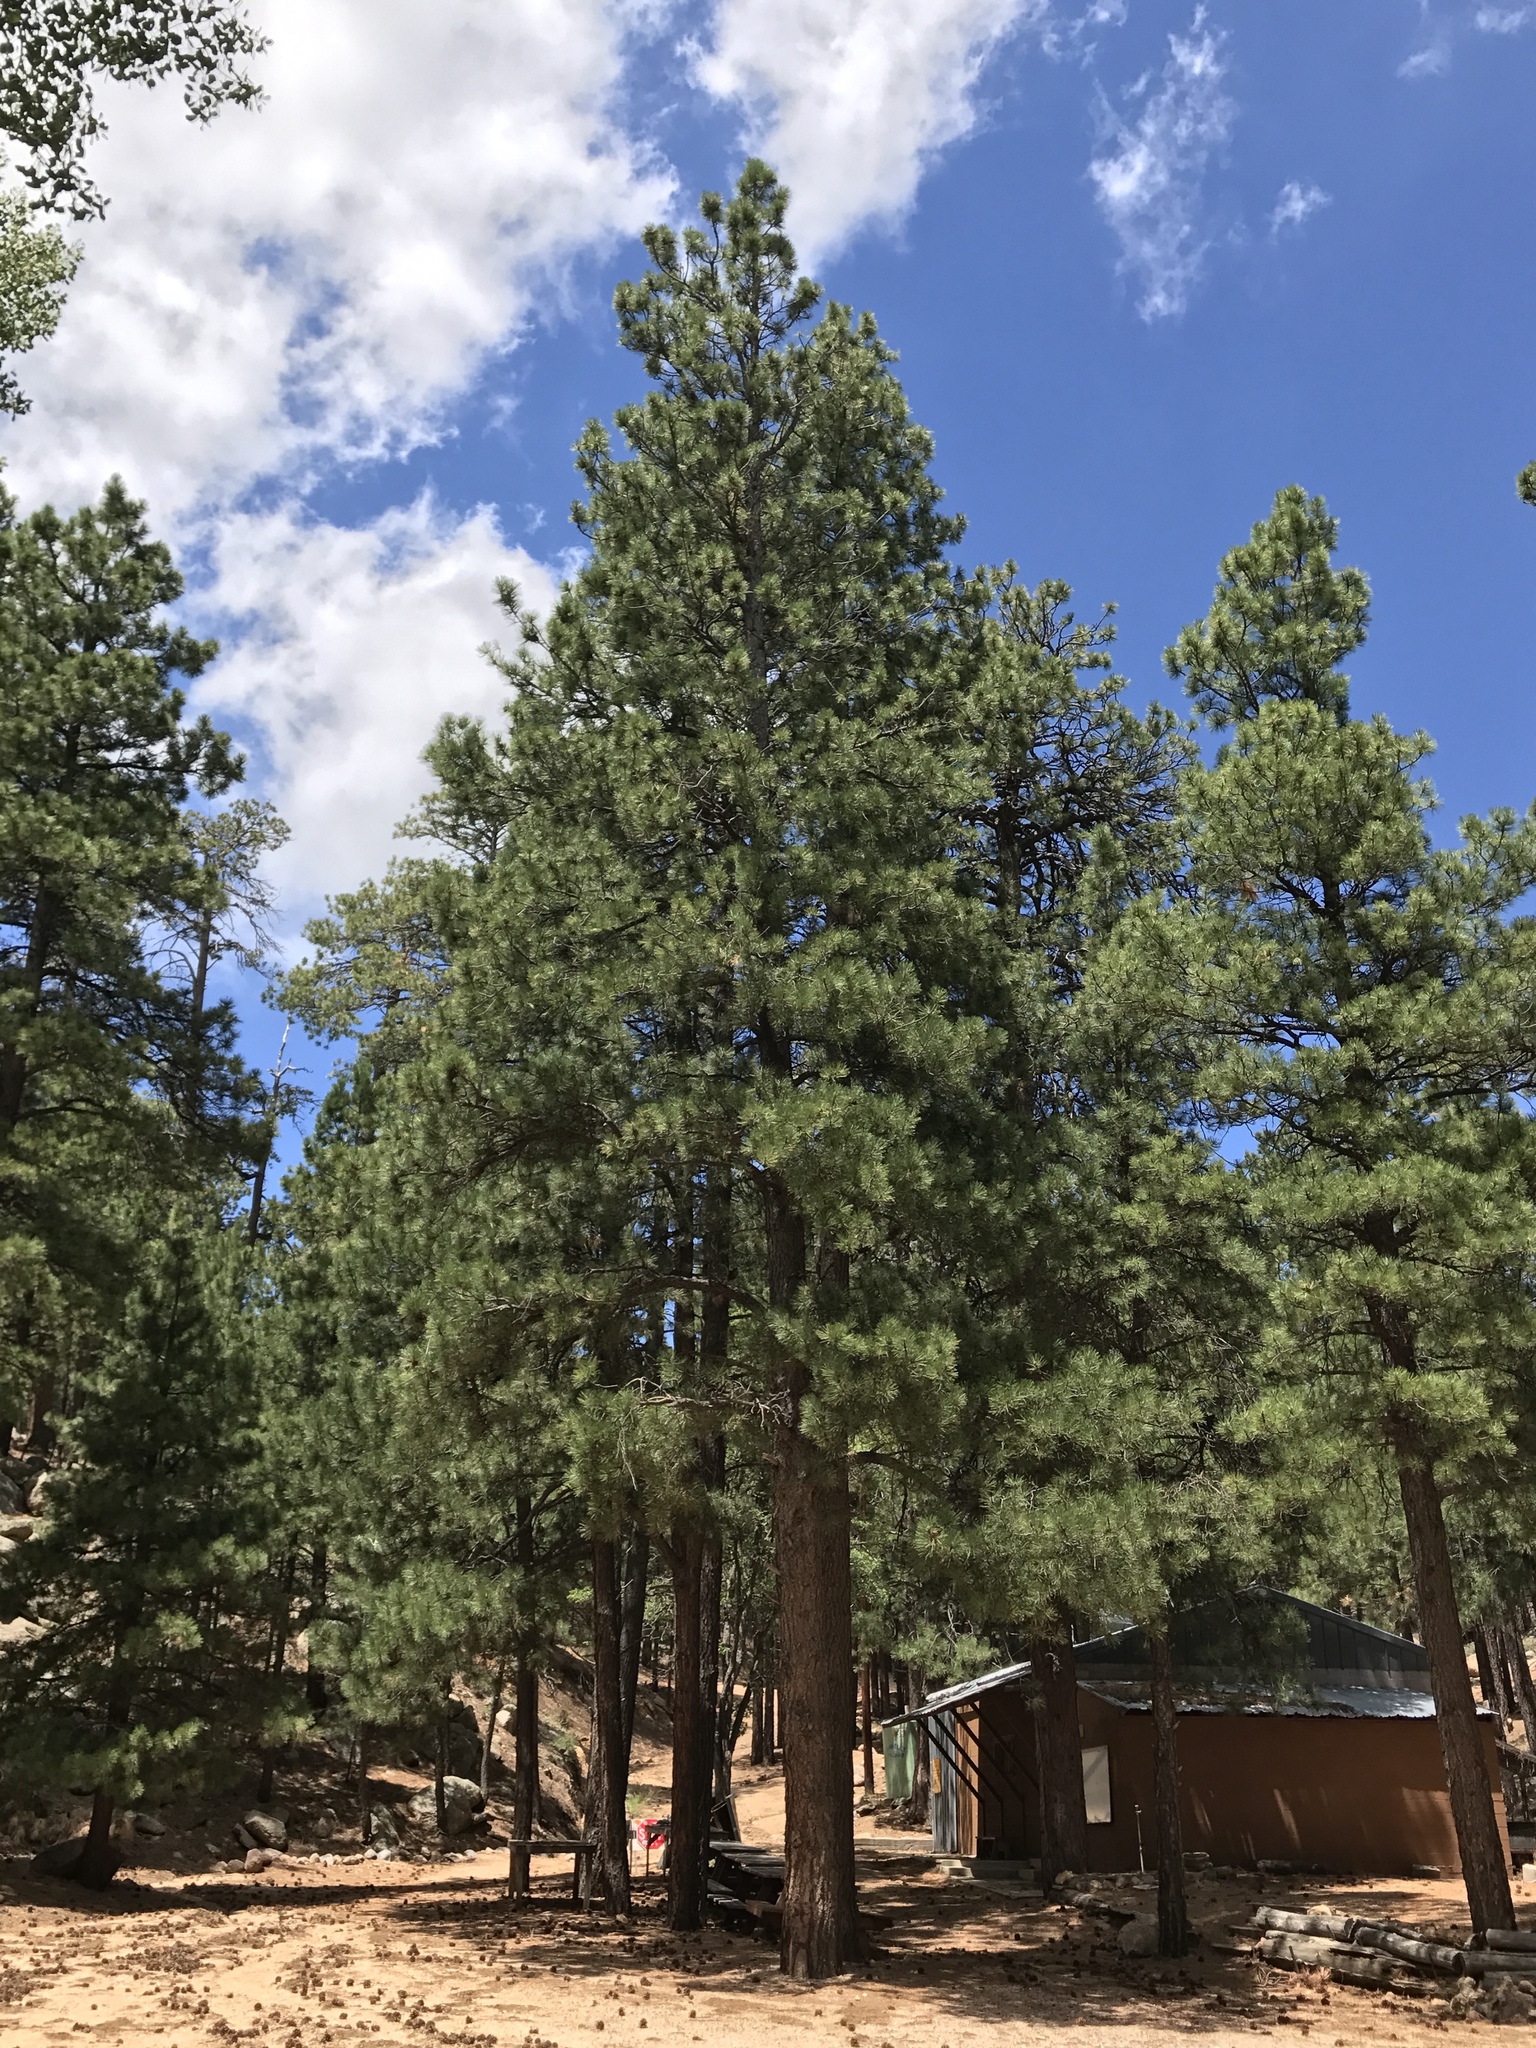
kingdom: Plantae
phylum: Tracheophyta
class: Pinopsida
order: Pinales
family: Pinaceae
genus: Pinus
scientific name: Pinus ponderosa
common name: Western yellow-pine
